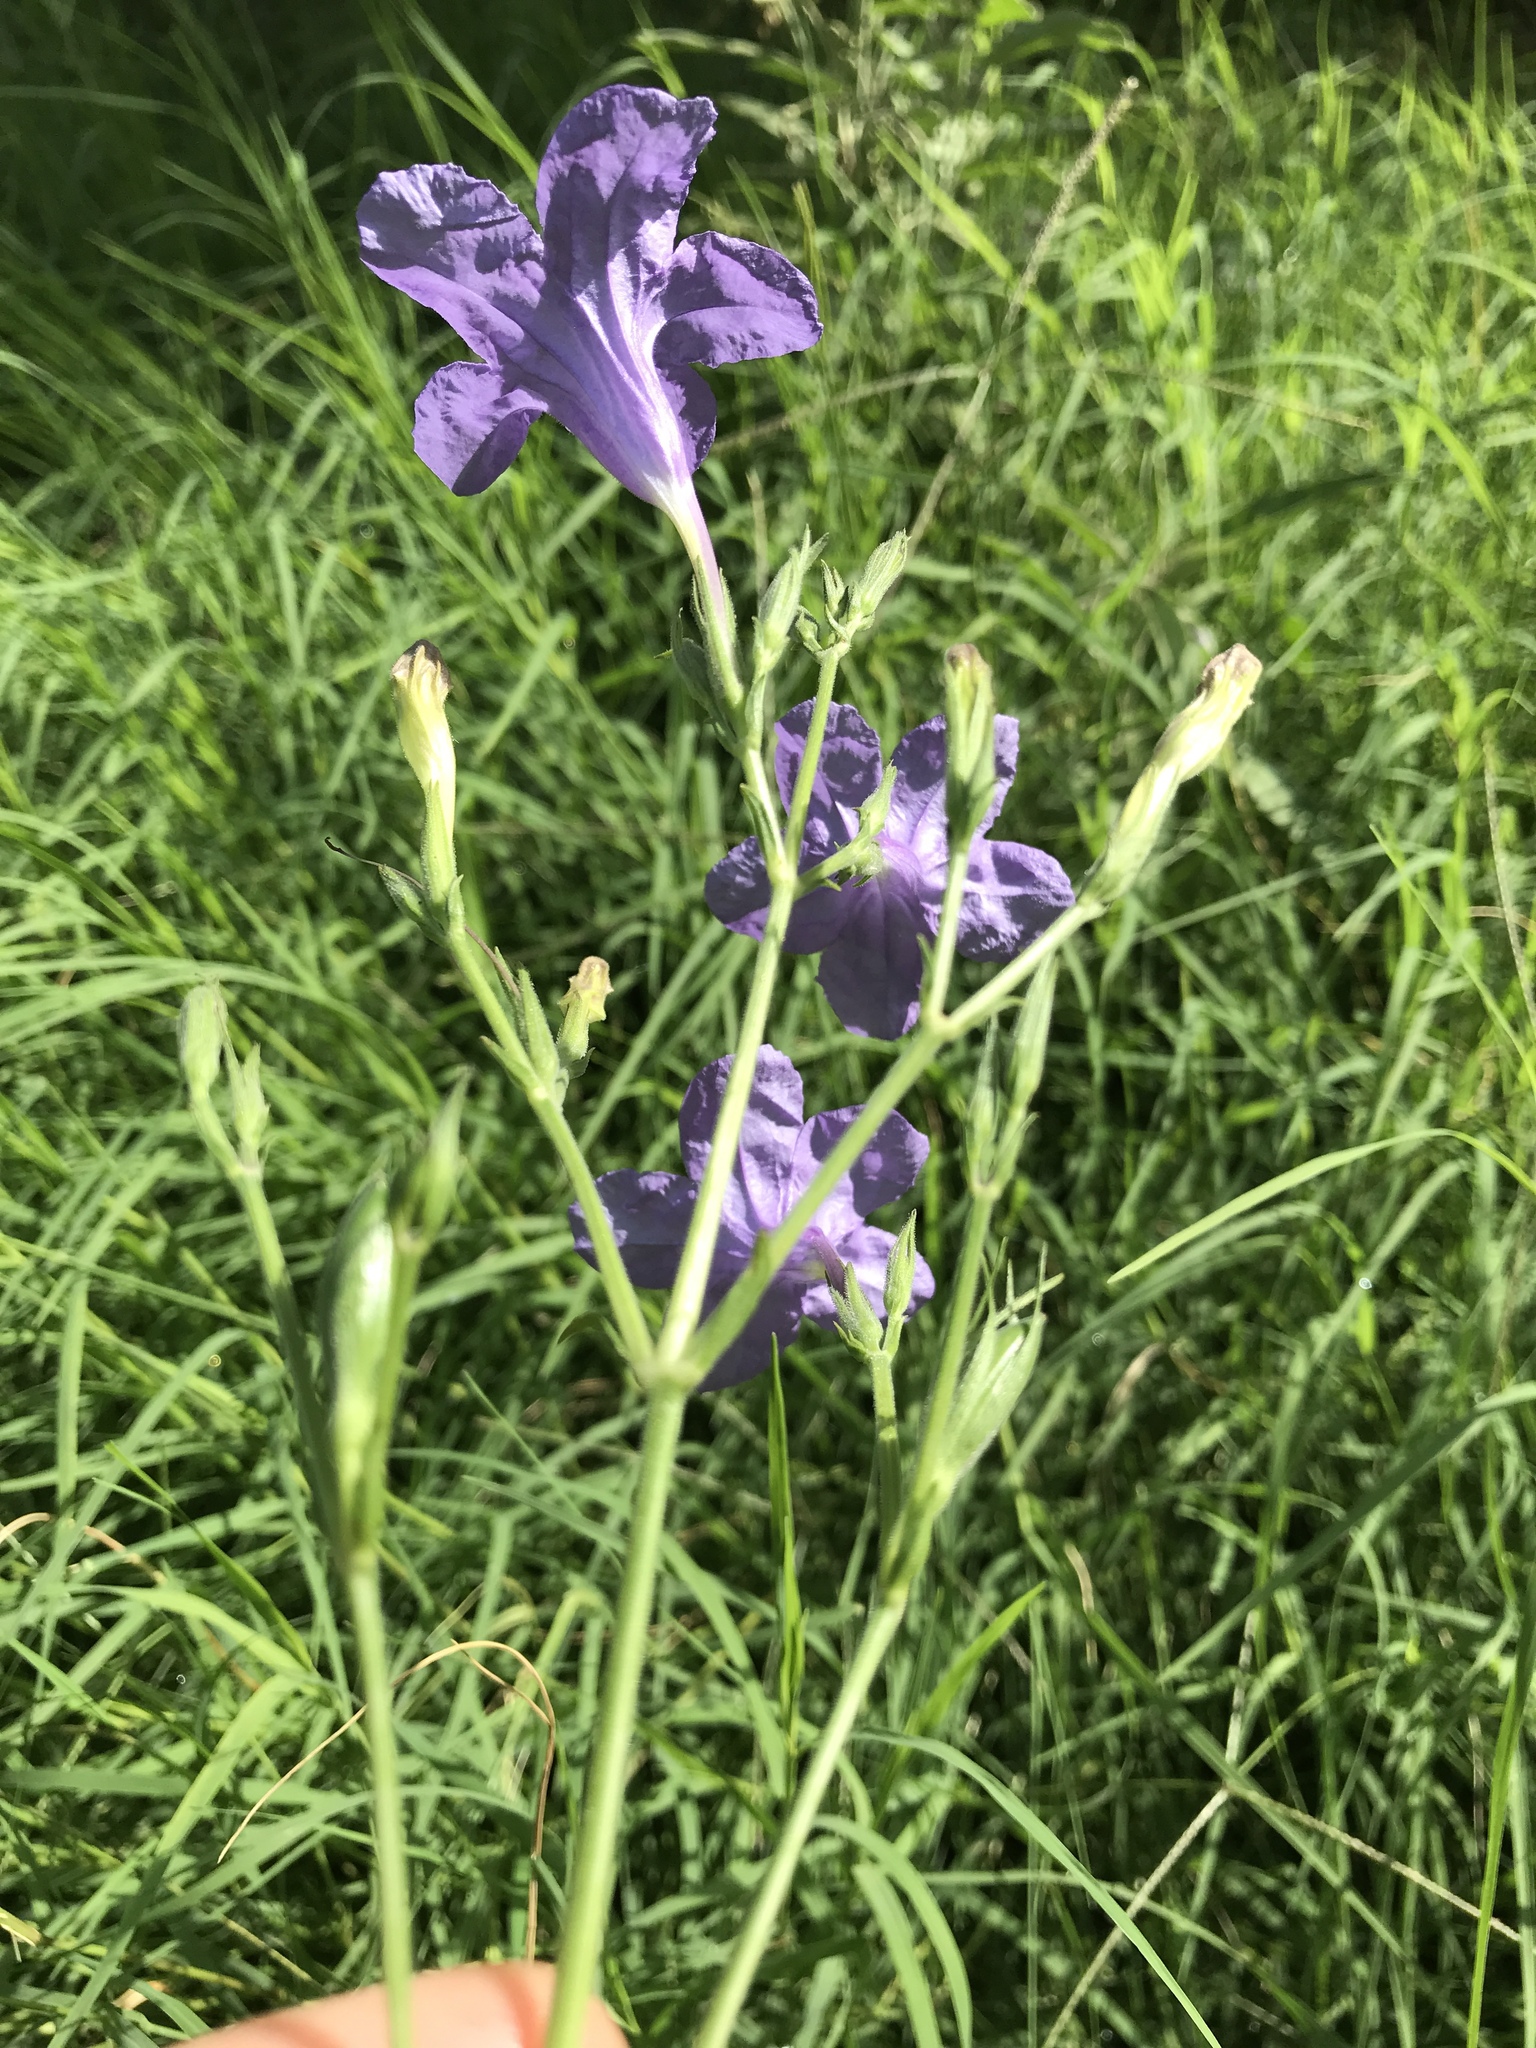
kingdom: Plantae
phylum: Tracheophyta
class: Magnoliopsida
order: Lamiales
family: Acanthaceae
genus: Ruellia
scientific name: Ruellia ciliatiflora
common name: Hairyflower wild petunia
